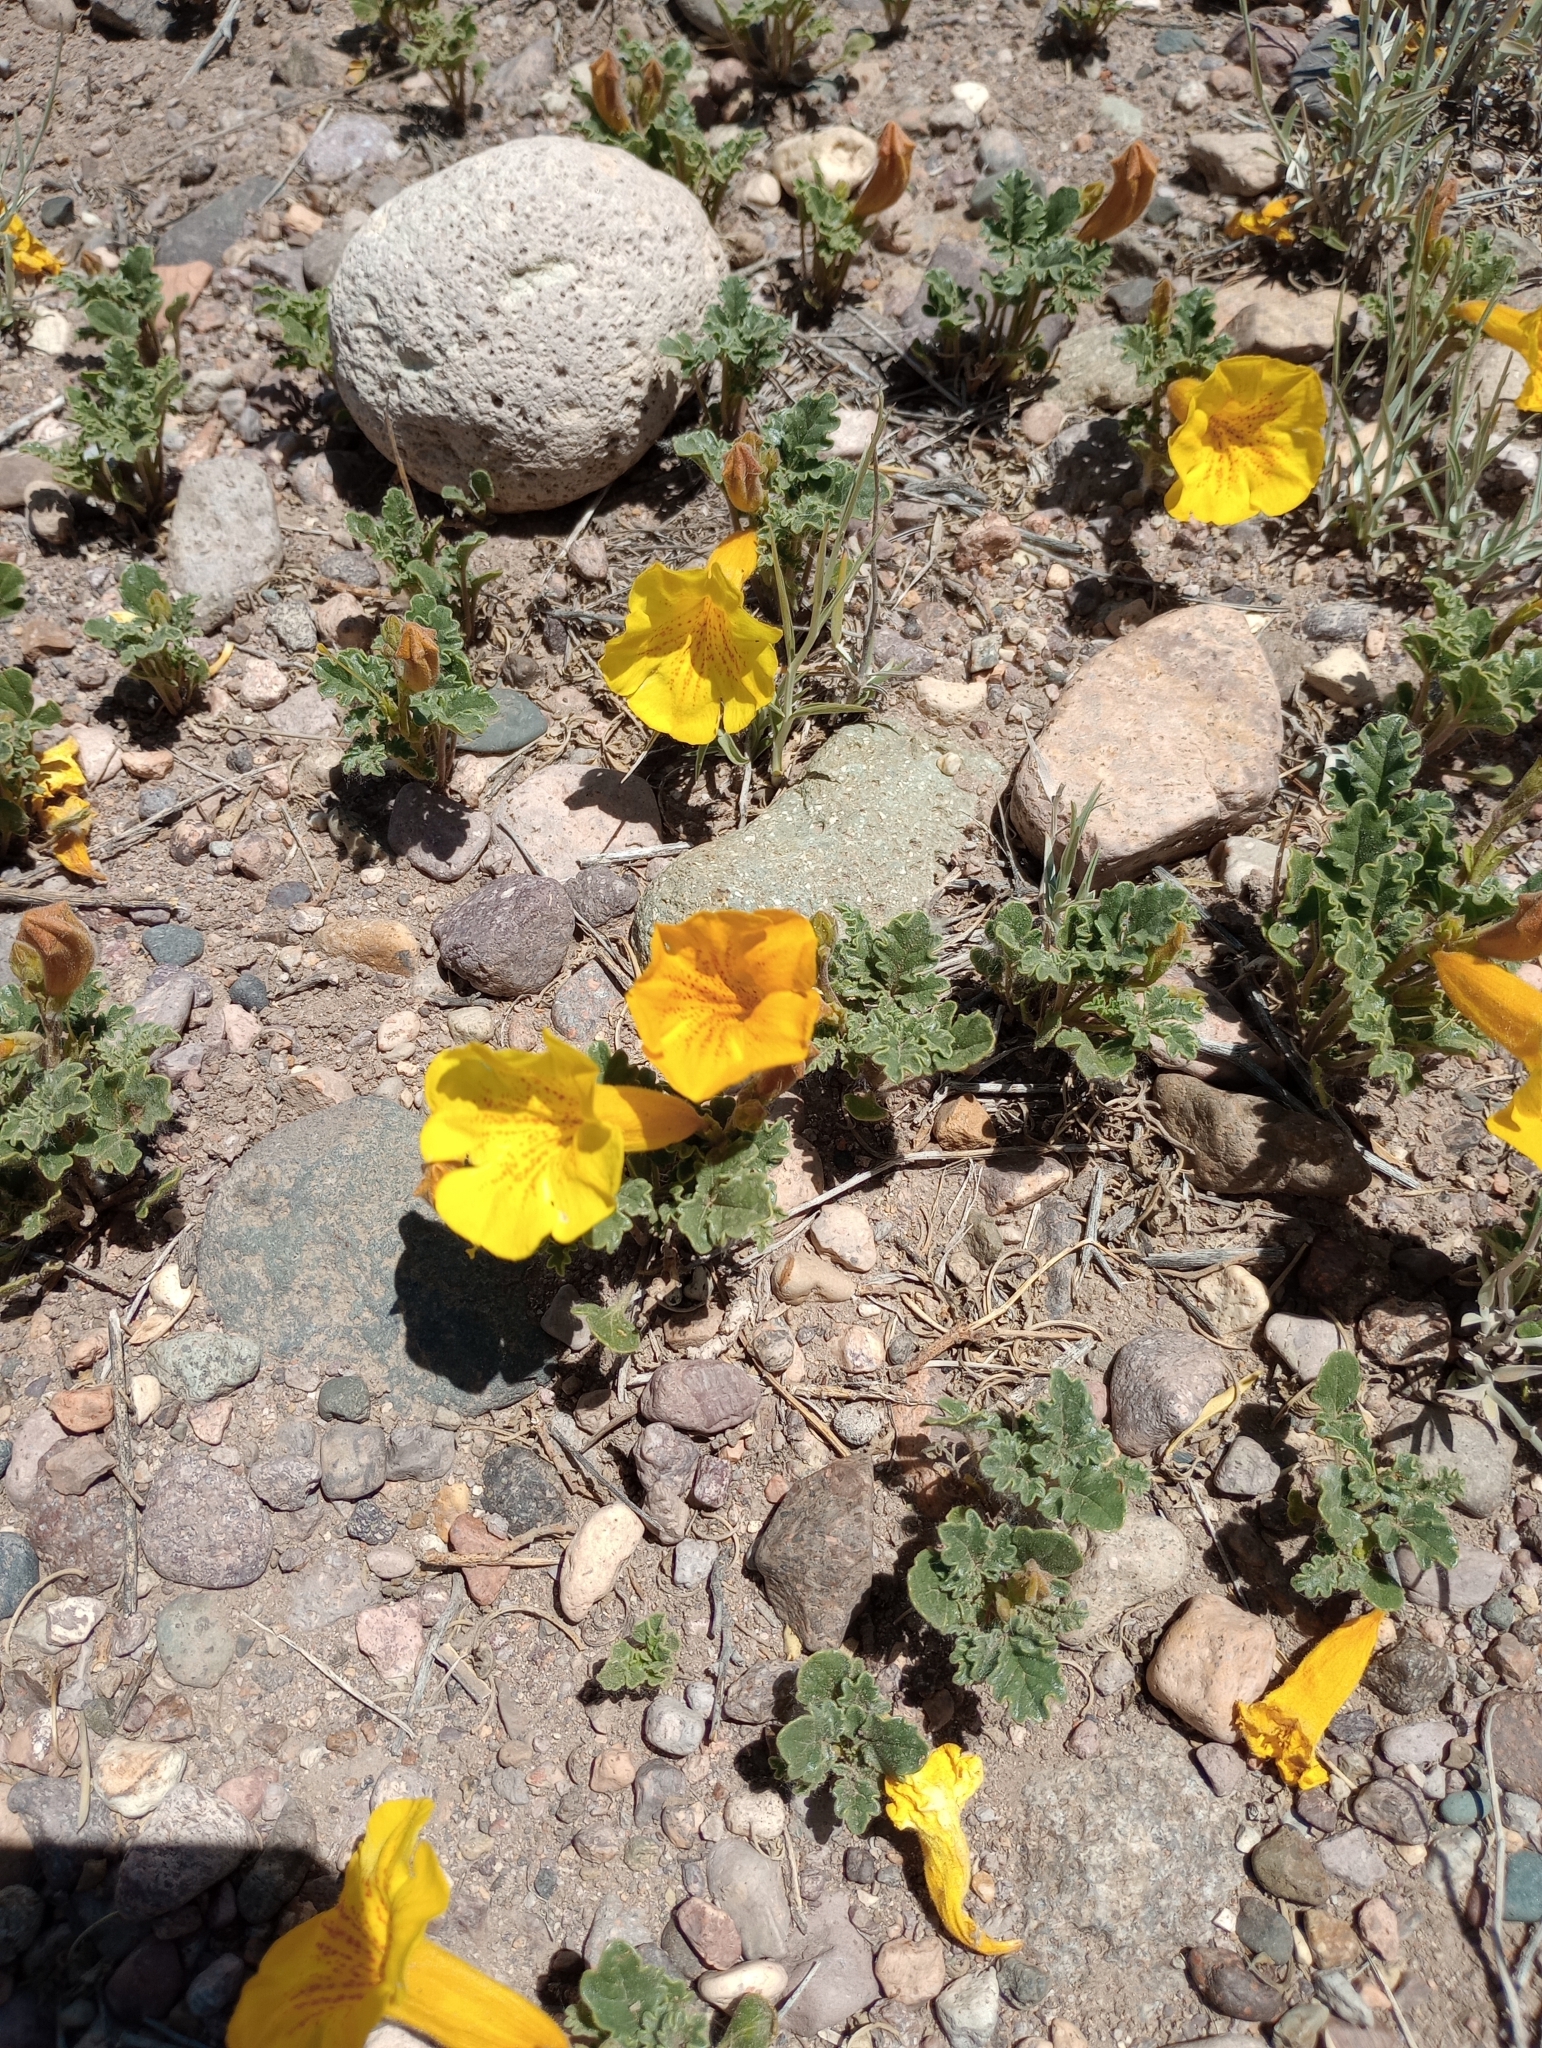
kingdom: Plantae
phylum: Tracheophyta
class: Magnoliopsida
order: Lamiales
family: Bignoniaceae
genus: Argylia
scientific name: Argylia uspallatensis
